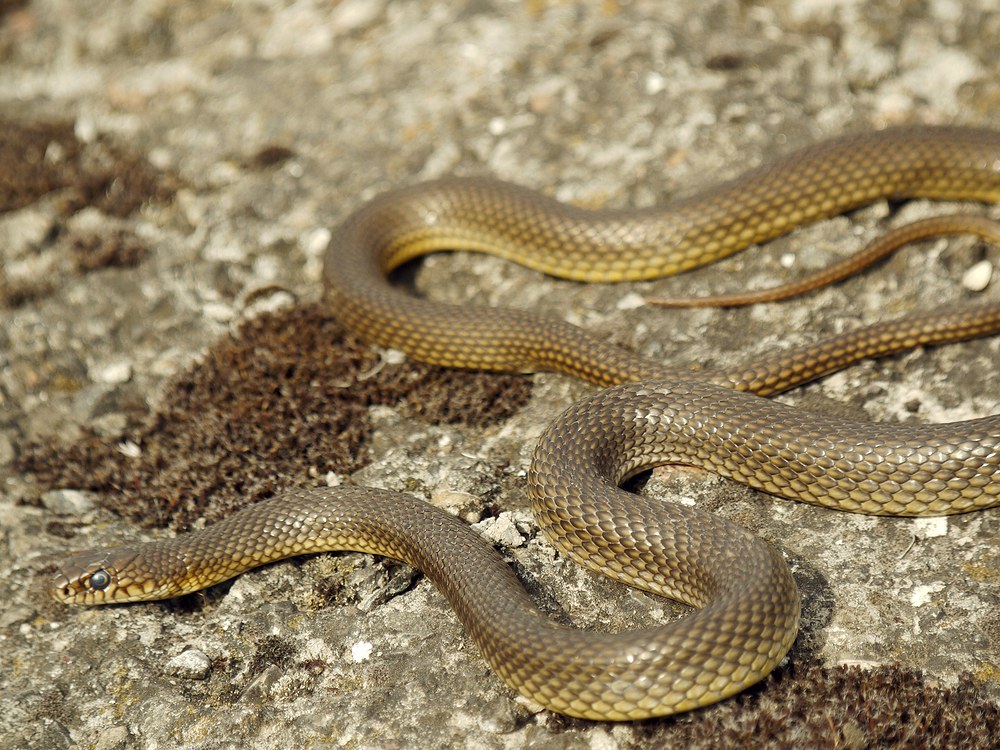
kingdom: Animalia
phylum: Chordata
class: Squamata
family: Colubridae
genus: Dolichophis
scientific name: Dolichophis caspius
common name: Large whip snake
